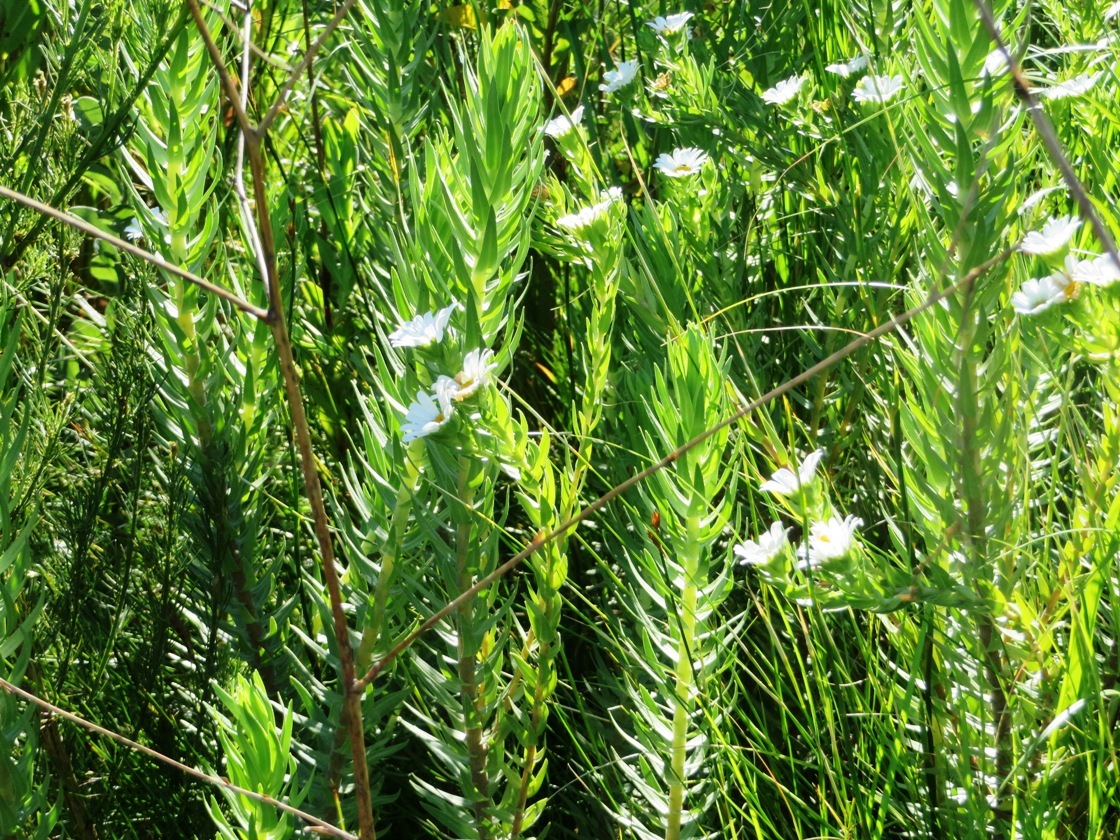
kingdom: Plantae
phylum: Tracheophyta
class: Magnoliopsida
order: Asterales
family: Asteraceae
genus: Osmitopsis
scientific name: Osmitopsis asteriscoides
